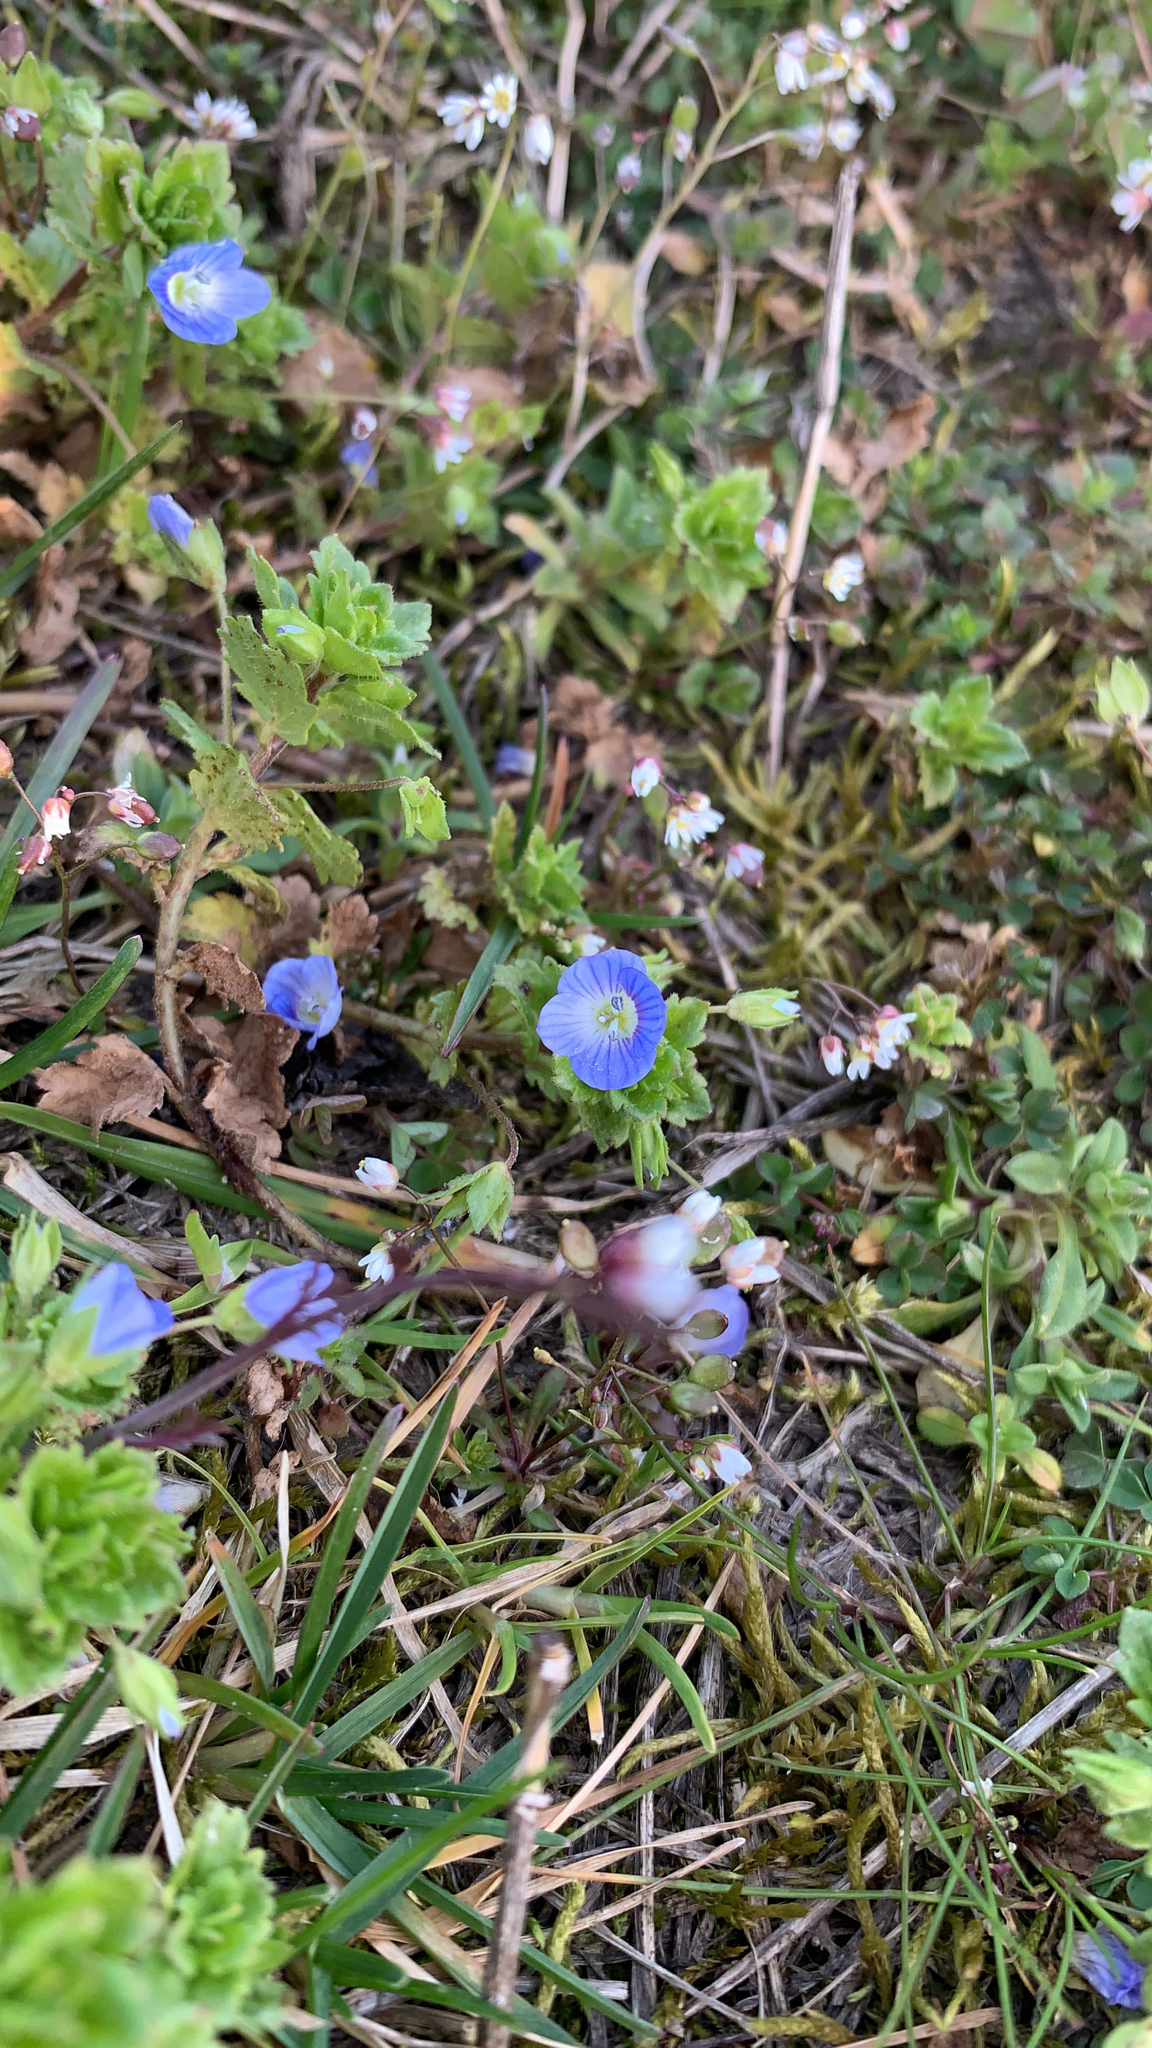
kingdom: Plantae
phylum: Tracheophyta
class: Magnoliopsida
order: Lamiales
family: Plantaginaceae
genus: Veronica
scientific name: Veronica persica
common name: Common field-speedwell
